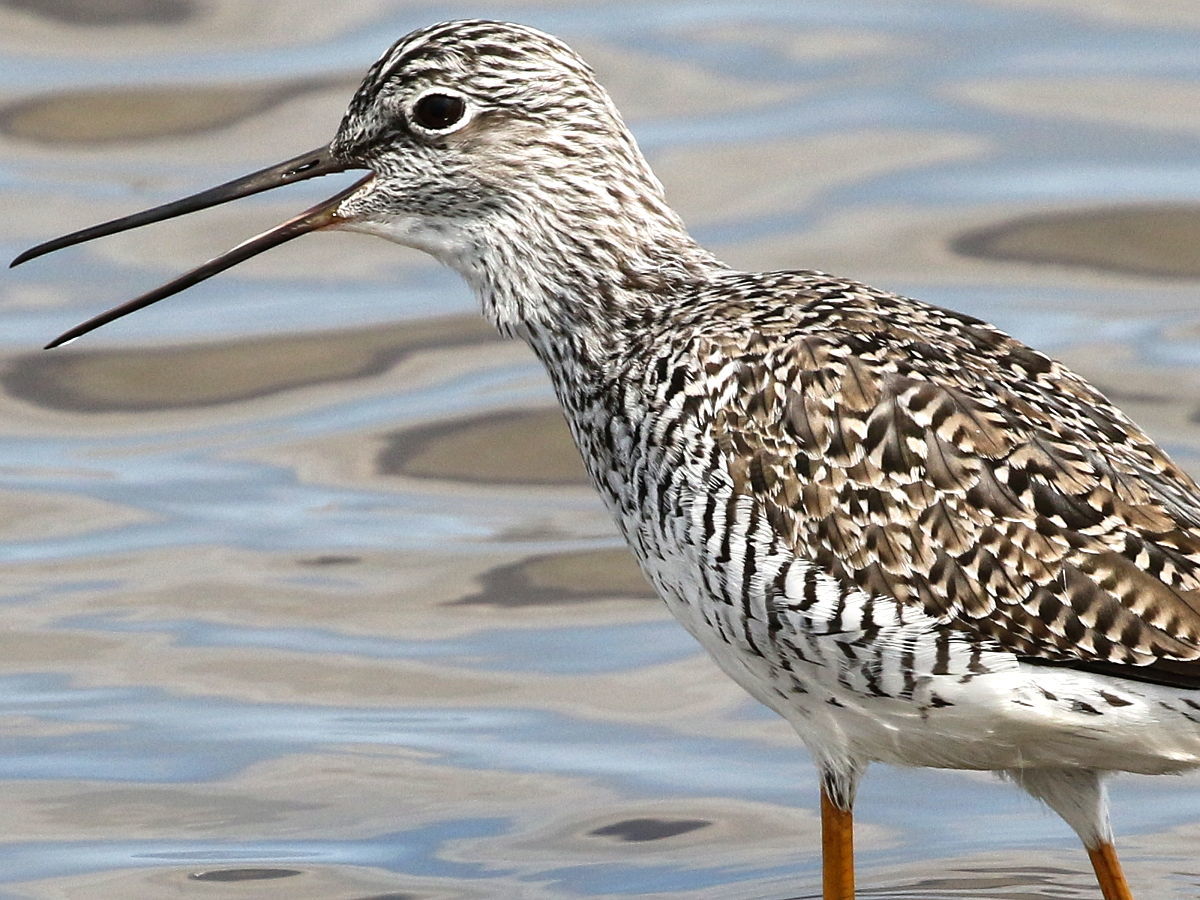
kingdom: Animalia
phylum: Chordata
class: Aves
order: Charadriiformes
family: Scolopacidae
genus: Tringa
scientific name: Tringa melanoleuca
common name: Greater yellowlegs
